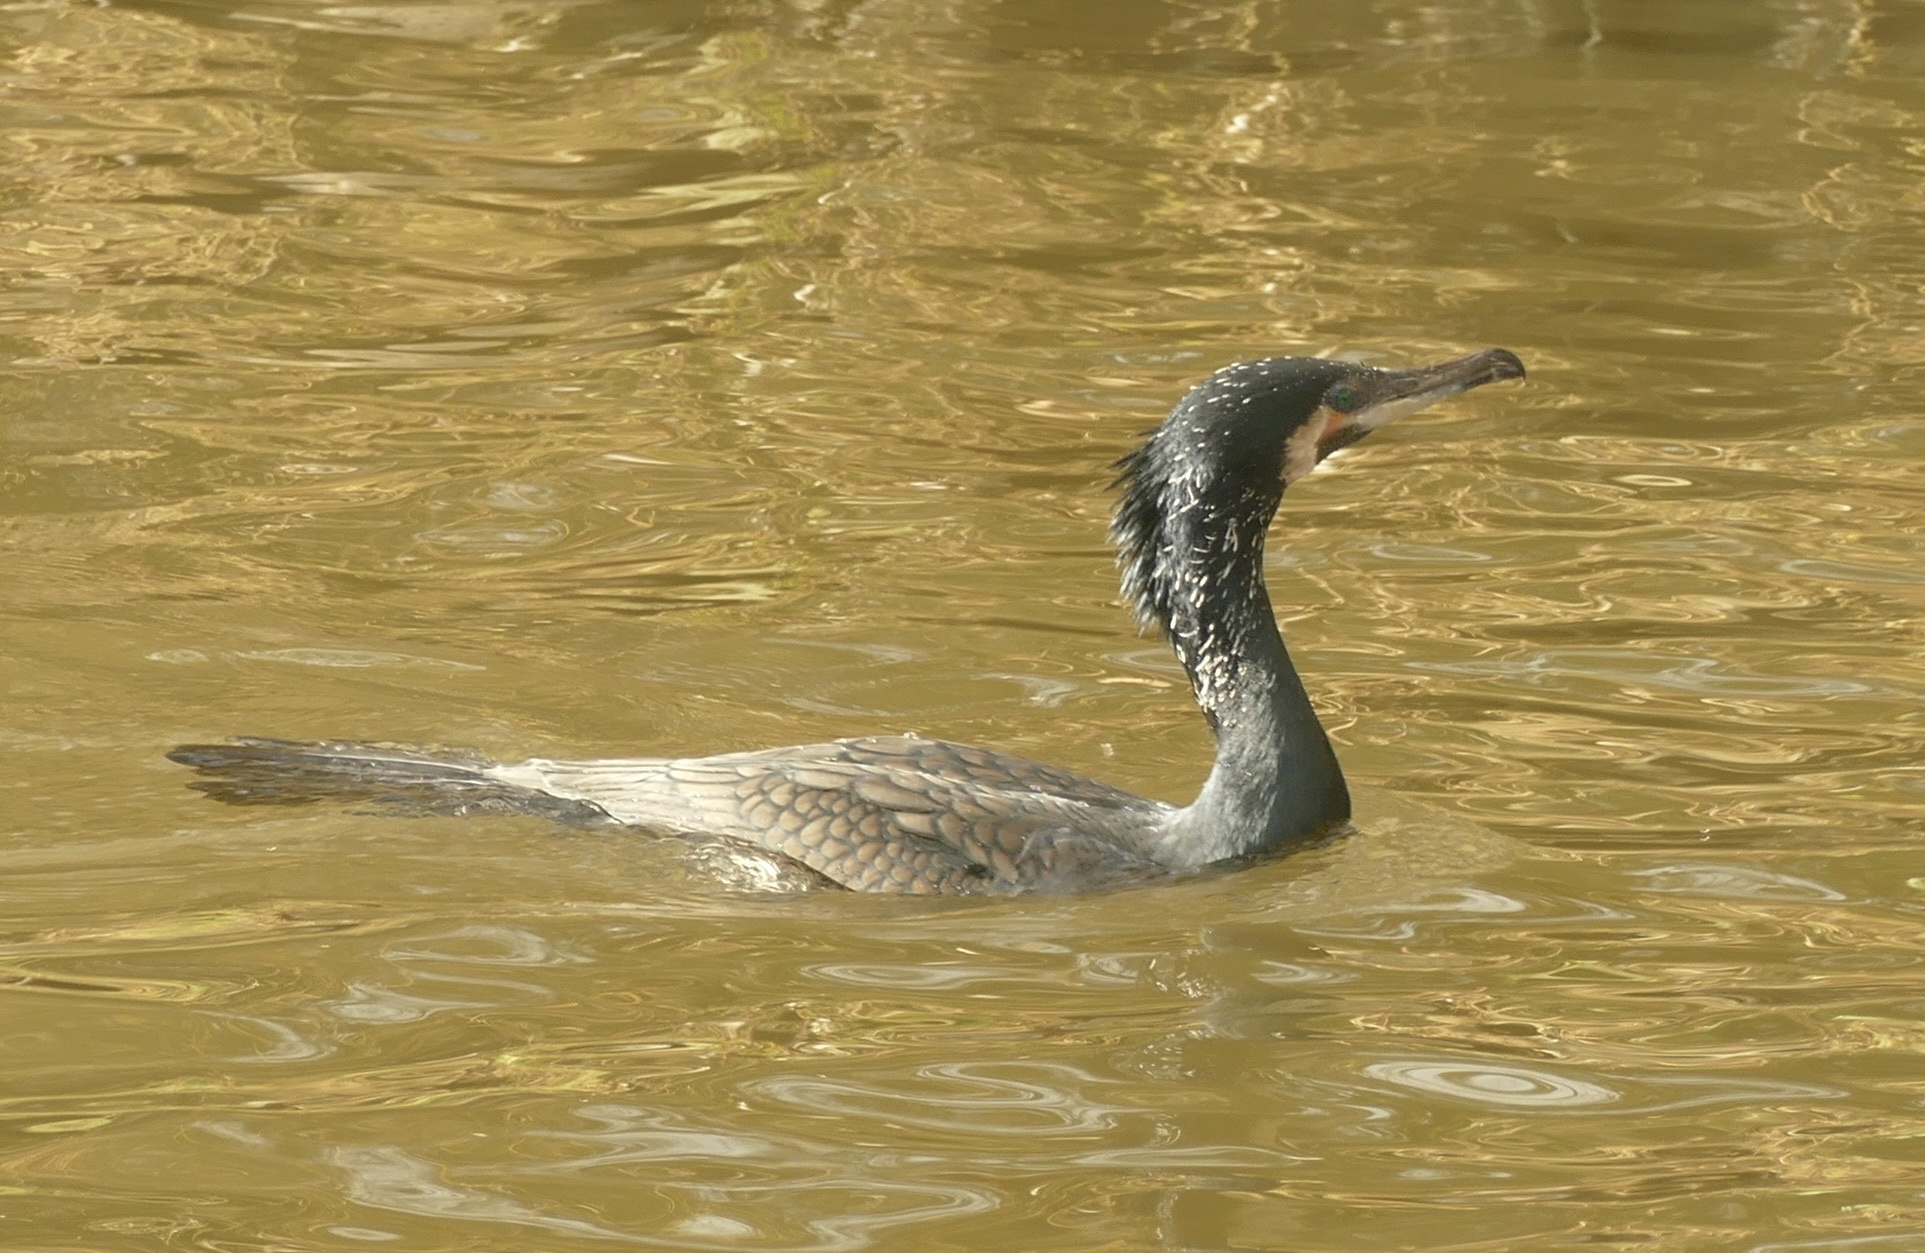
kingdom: Animalia
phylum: Chordata
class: Aves
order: Suliformes
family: Phalacrocoracidae
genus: Phalacrocorax
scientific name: Phalacrocorax carbo
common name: Great cormorant
